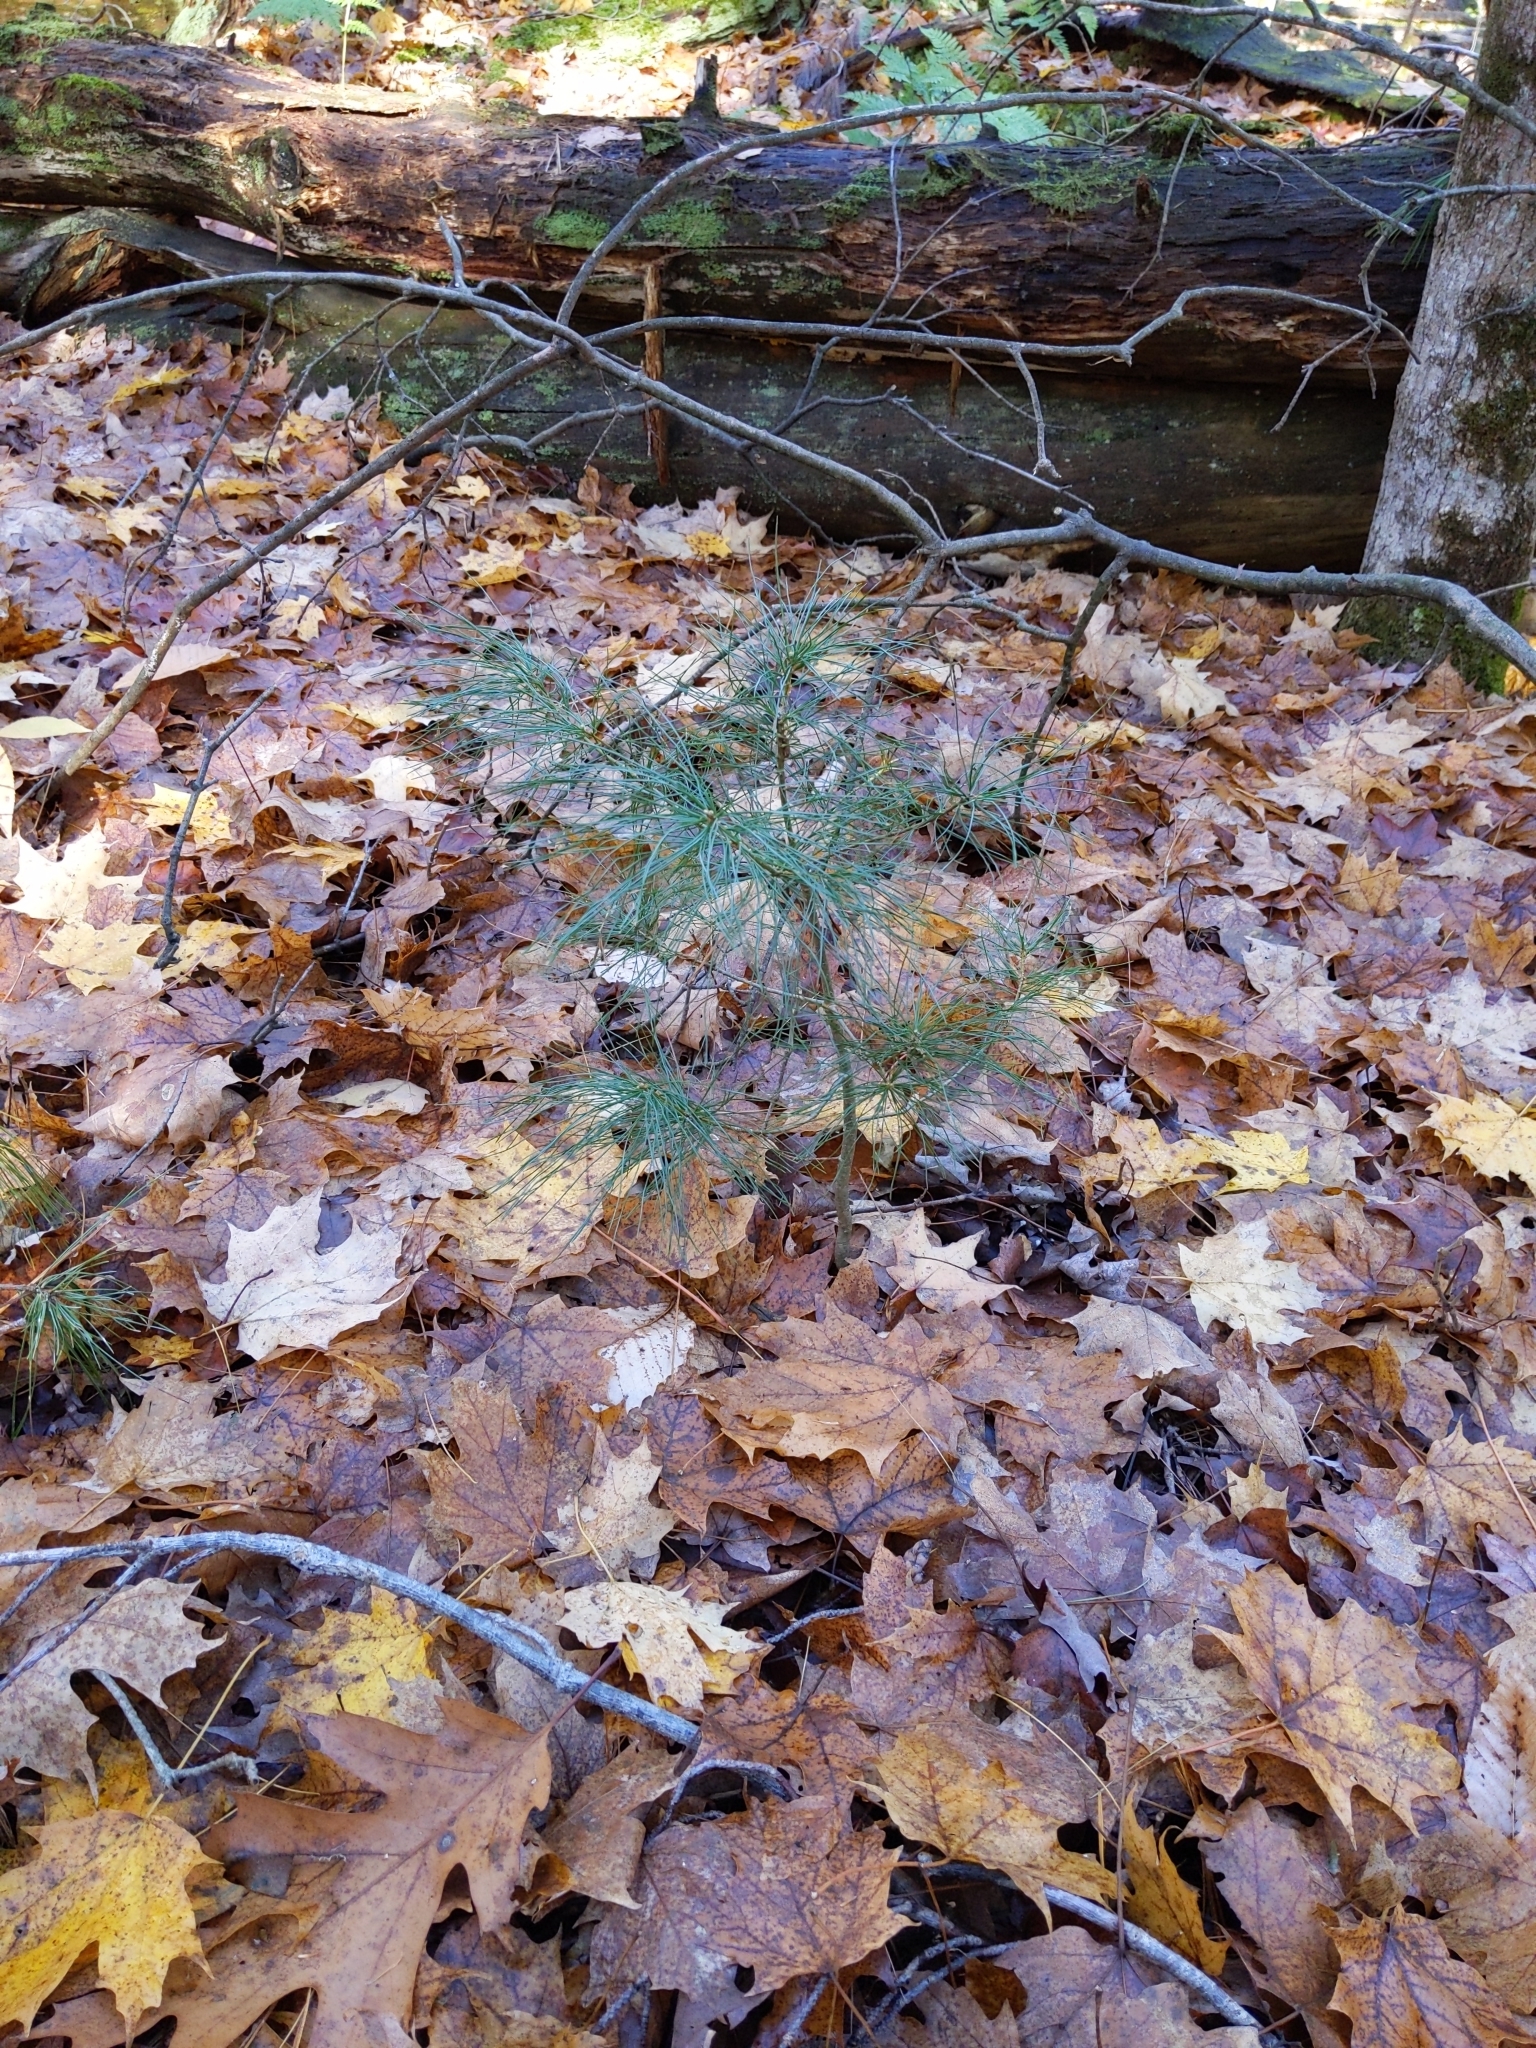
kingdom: Plantae
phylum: Tracheophyta
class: Pinopsida
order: Pinales
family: Pinaceae
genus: Pinus
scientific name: Pinus strobus
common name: Weymouth pine
